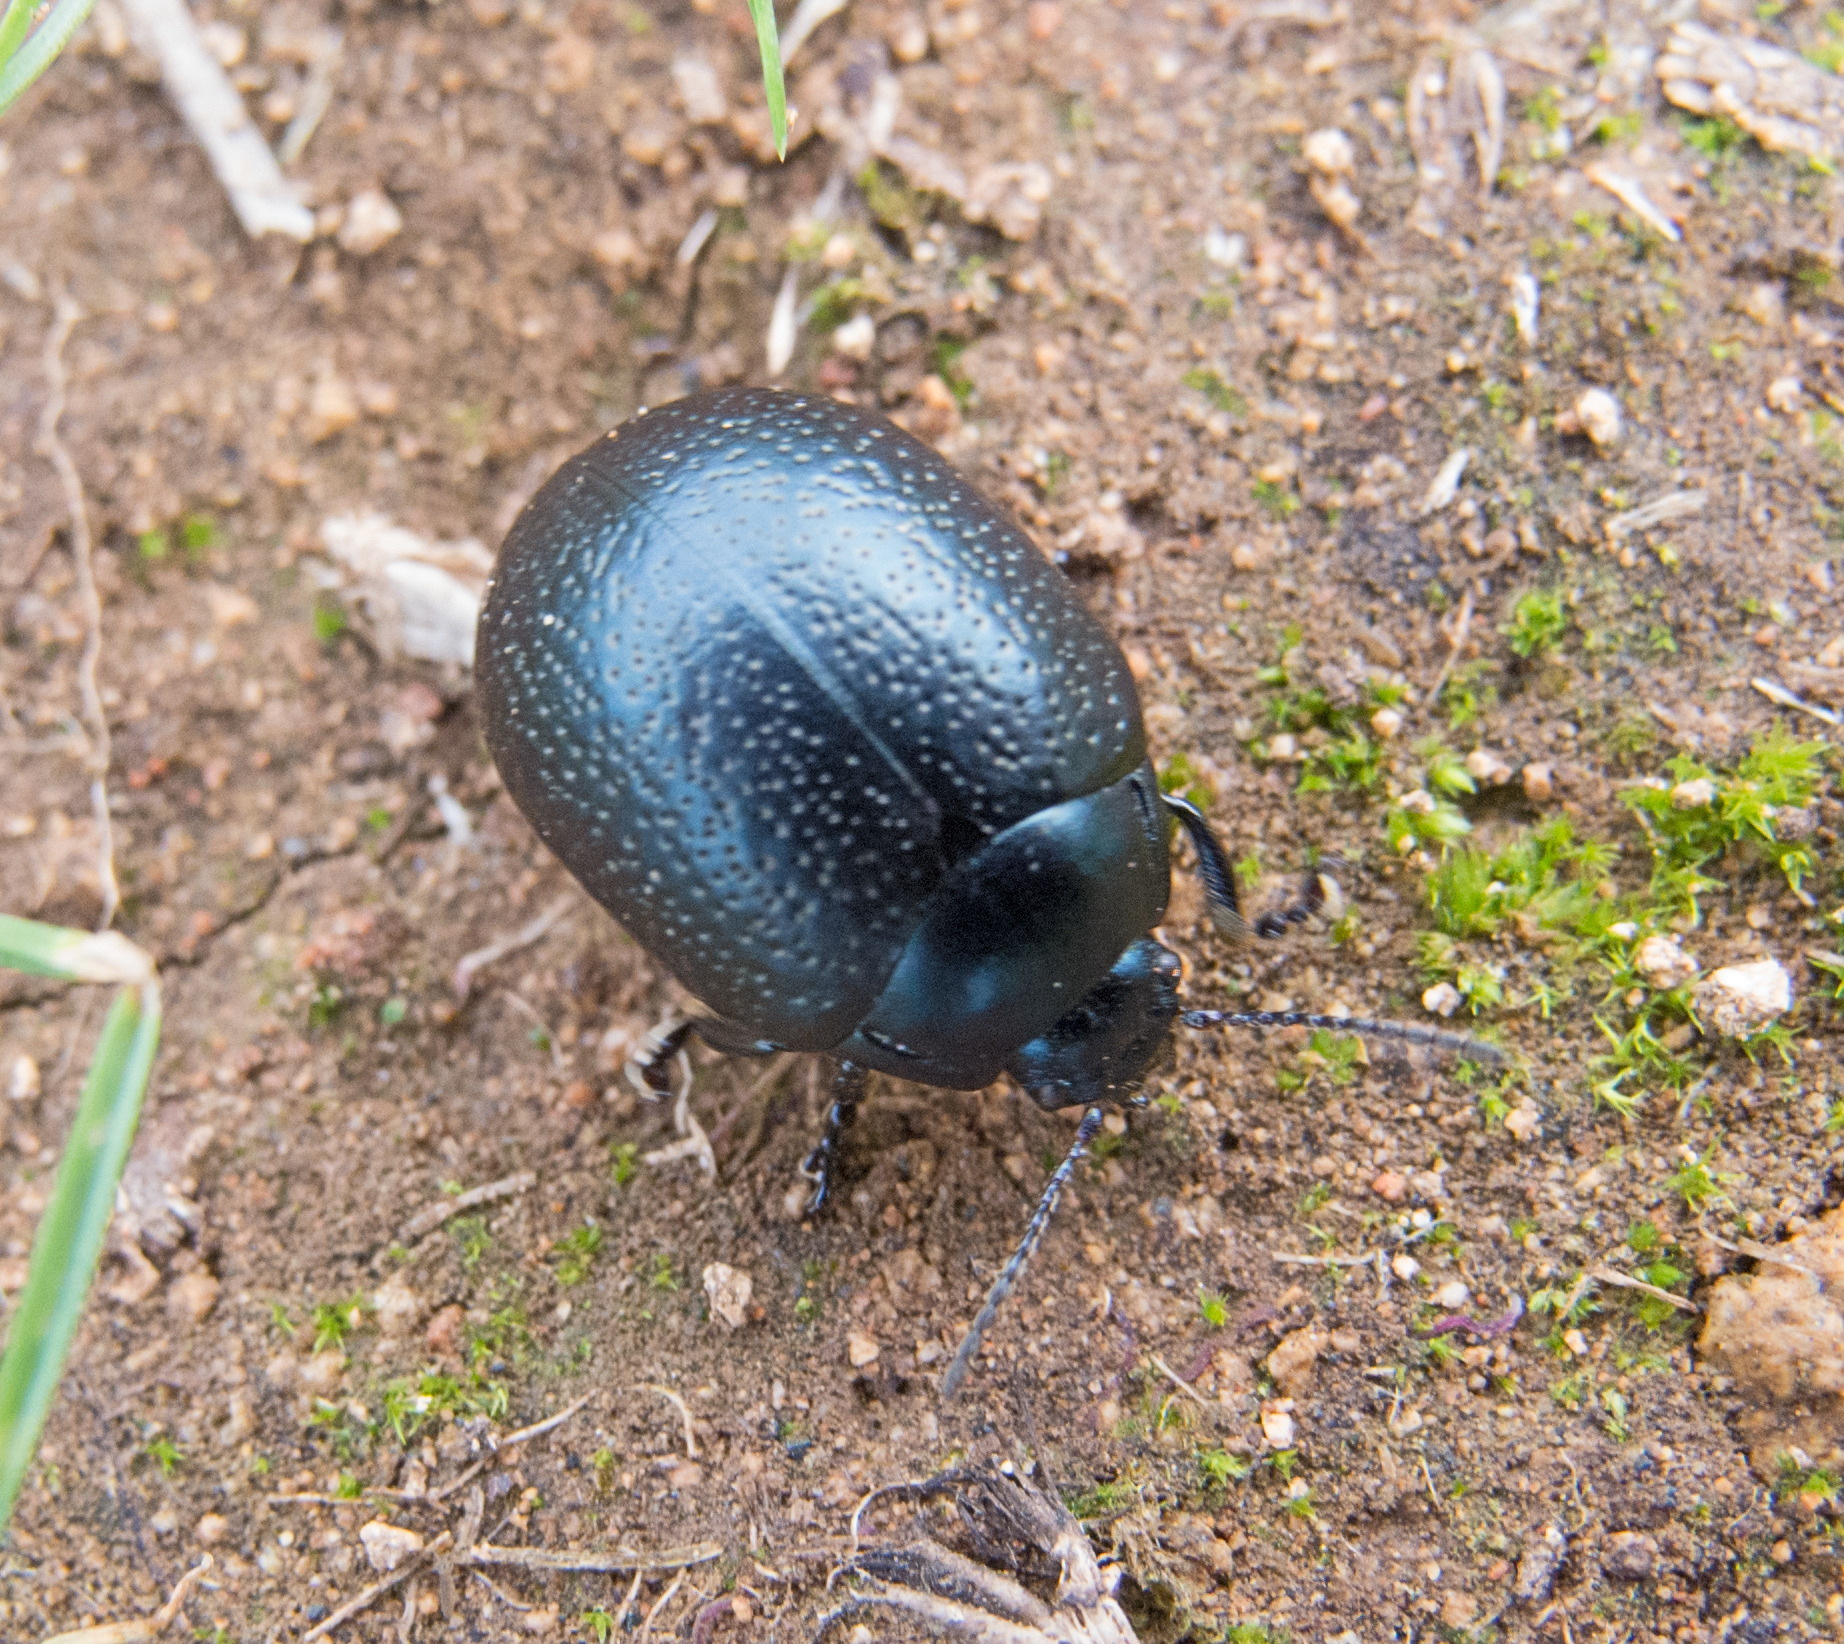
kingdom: Animalia
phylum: Arthropoda
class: Insecta
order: Coleoptera
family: Chrysomelidae
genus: Chrysolina
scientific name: Chrysolina vernalis
